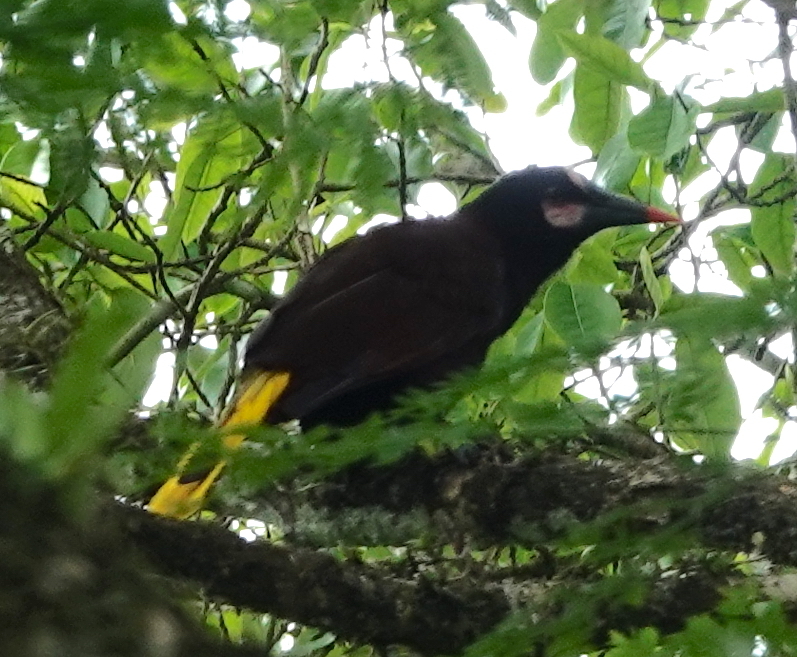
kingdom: Animalia
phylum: Chordata
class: Aves
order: Passeriformes
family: Icteridae
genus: Psarocolius
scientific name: Psarocolius cassini
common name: Baudo oropendola
